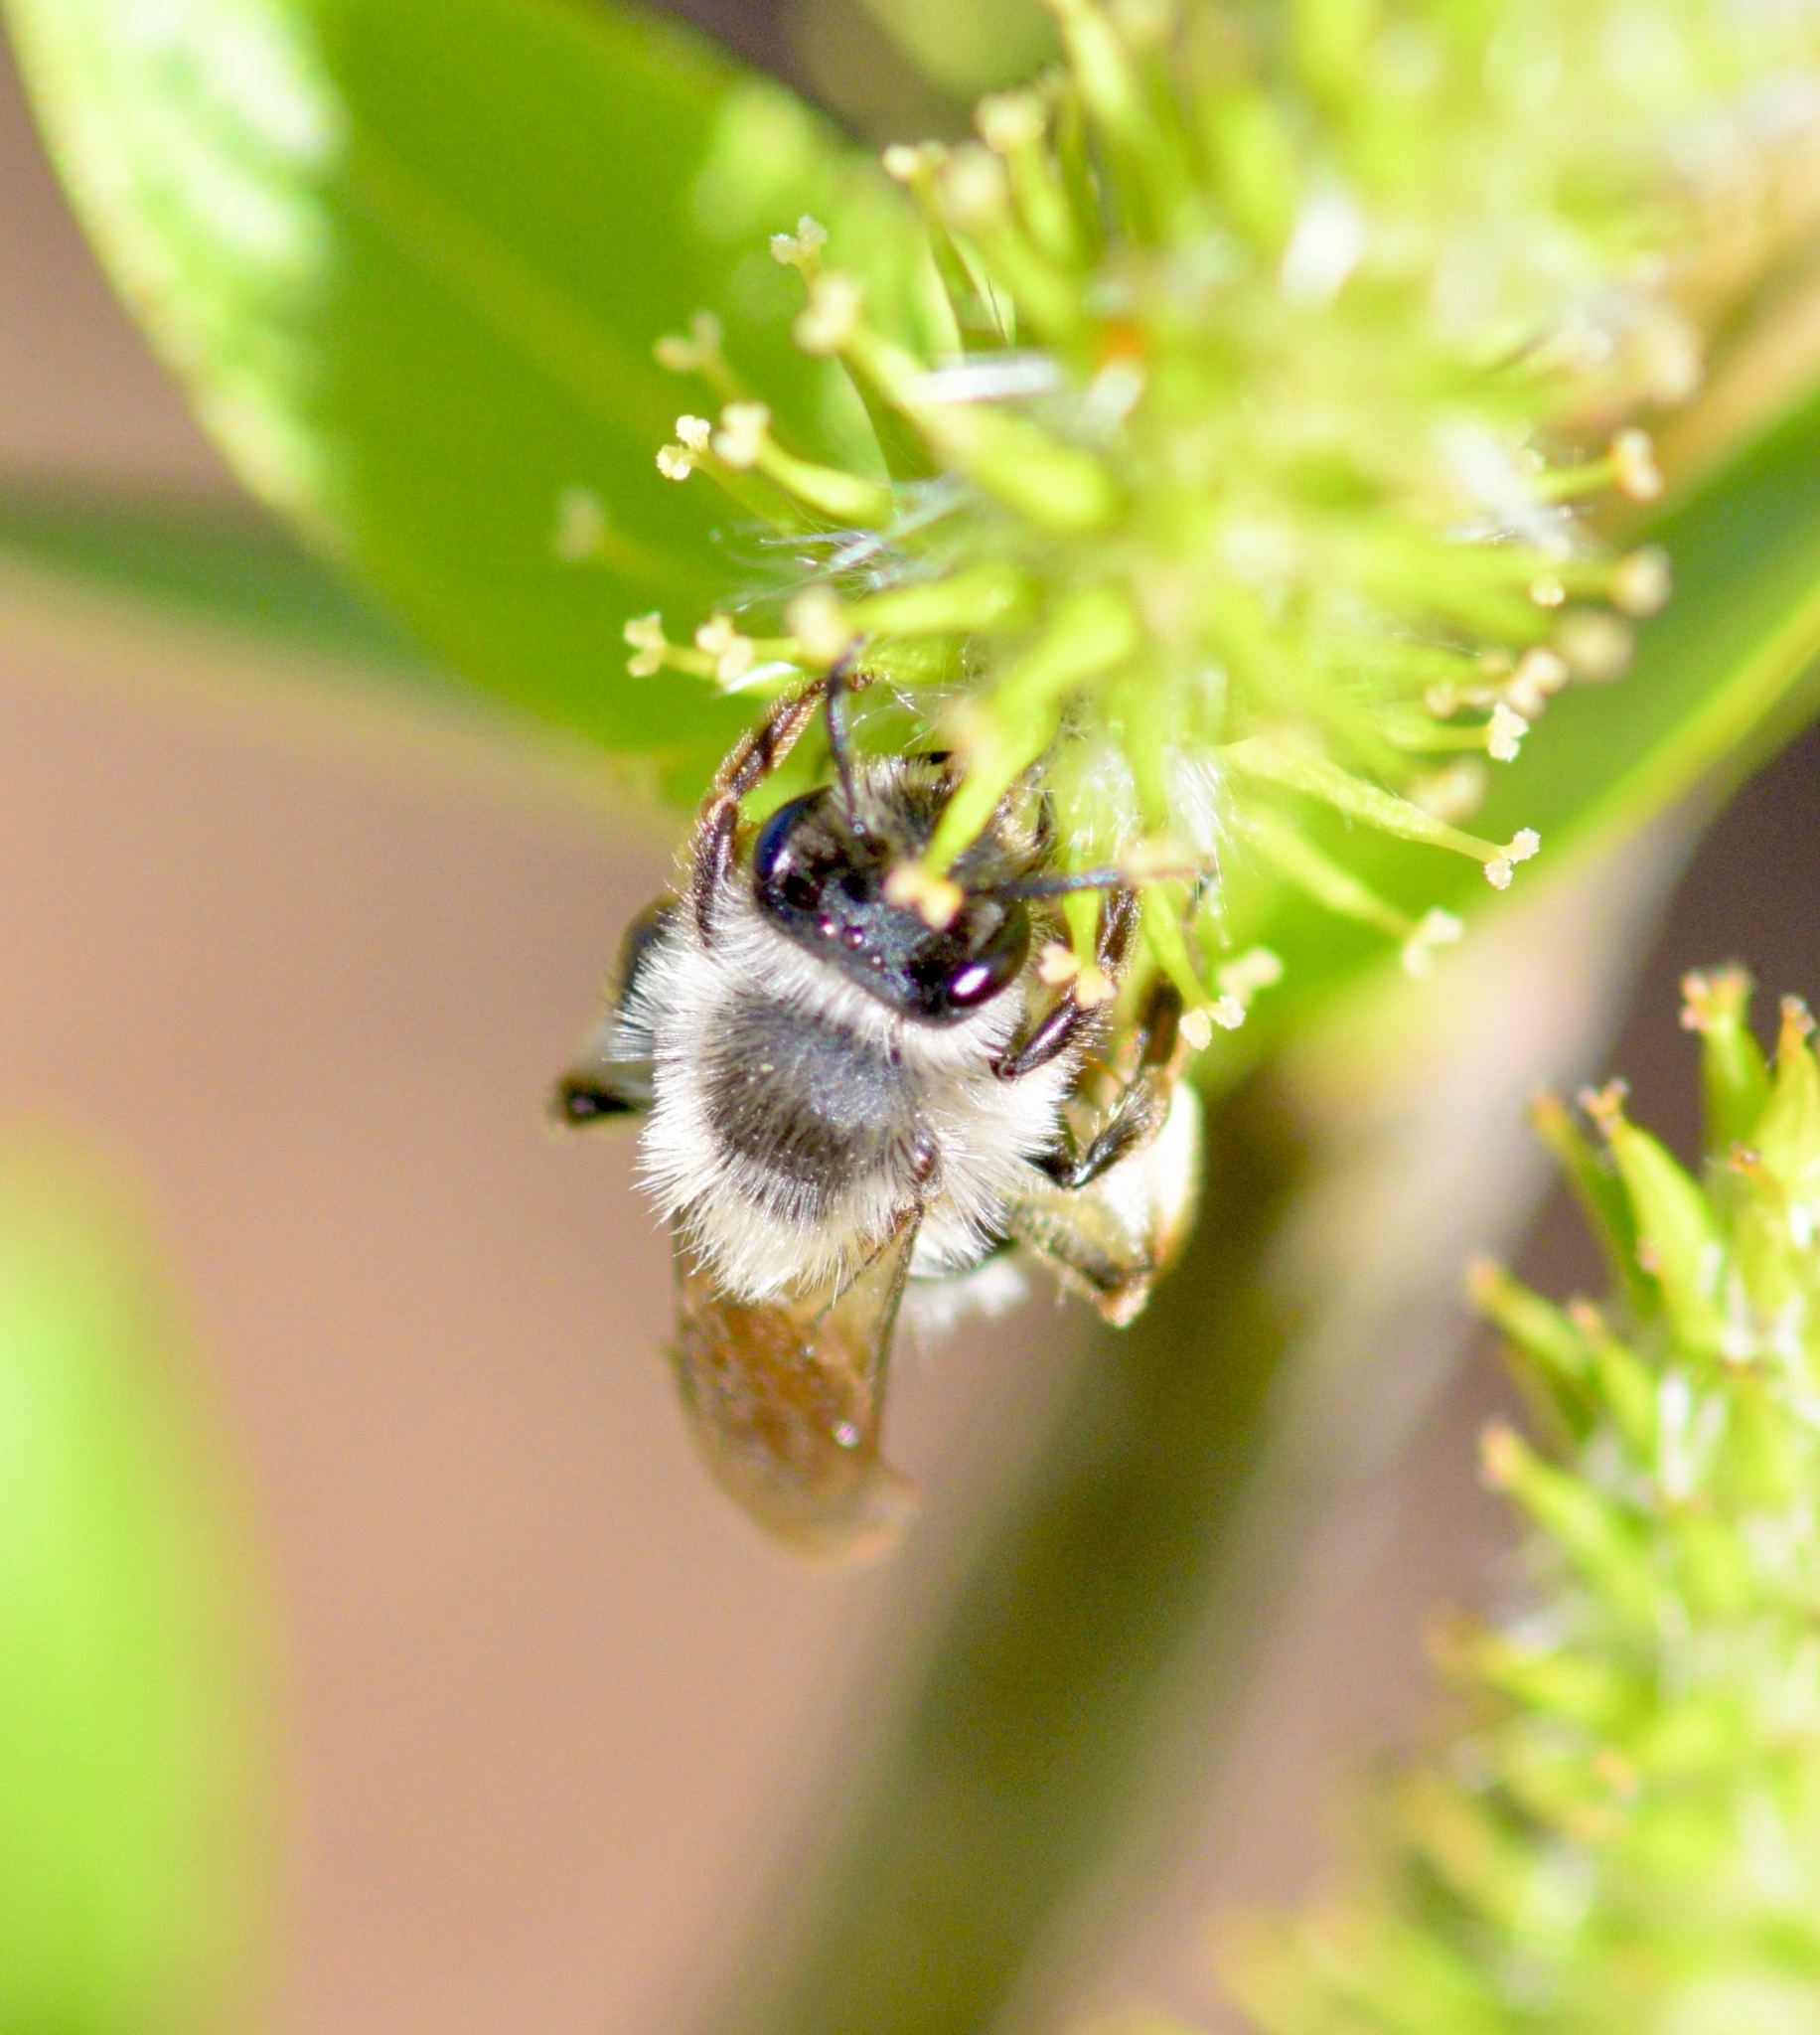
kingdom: Animalia
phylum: Arthropoda
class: Insecta
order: Hymenoptera
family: Andrenidae
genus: Andrena
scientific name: Andrena frigida
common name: Frigid mining bee
